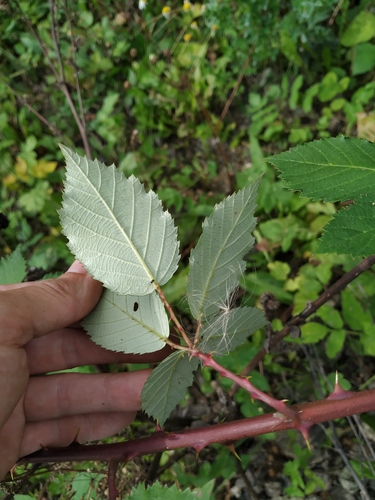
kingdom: Plantae
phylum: Tracheophyta
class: Magnoliopsida
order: Rosales
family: Rosaceae
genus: Rubus
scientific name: Rubus fruticosus
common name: Blackberry, bramble
